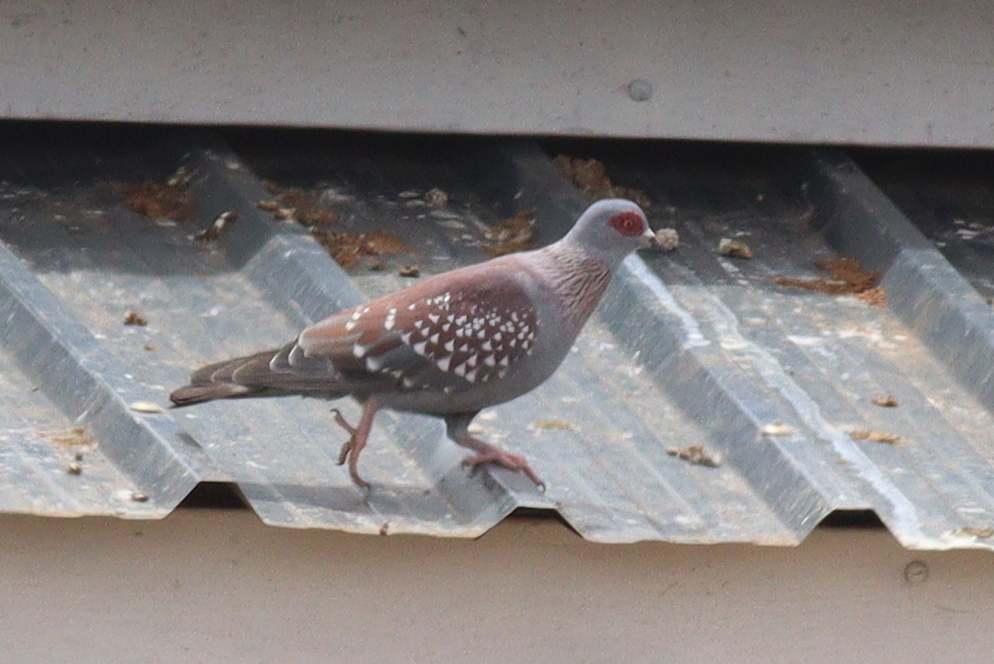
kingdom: Animalia
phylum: Chordata
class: Aves
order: Columbiformes
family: Columbidae
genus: Columba
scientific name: Columba guinea
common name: Speckled pigeon
